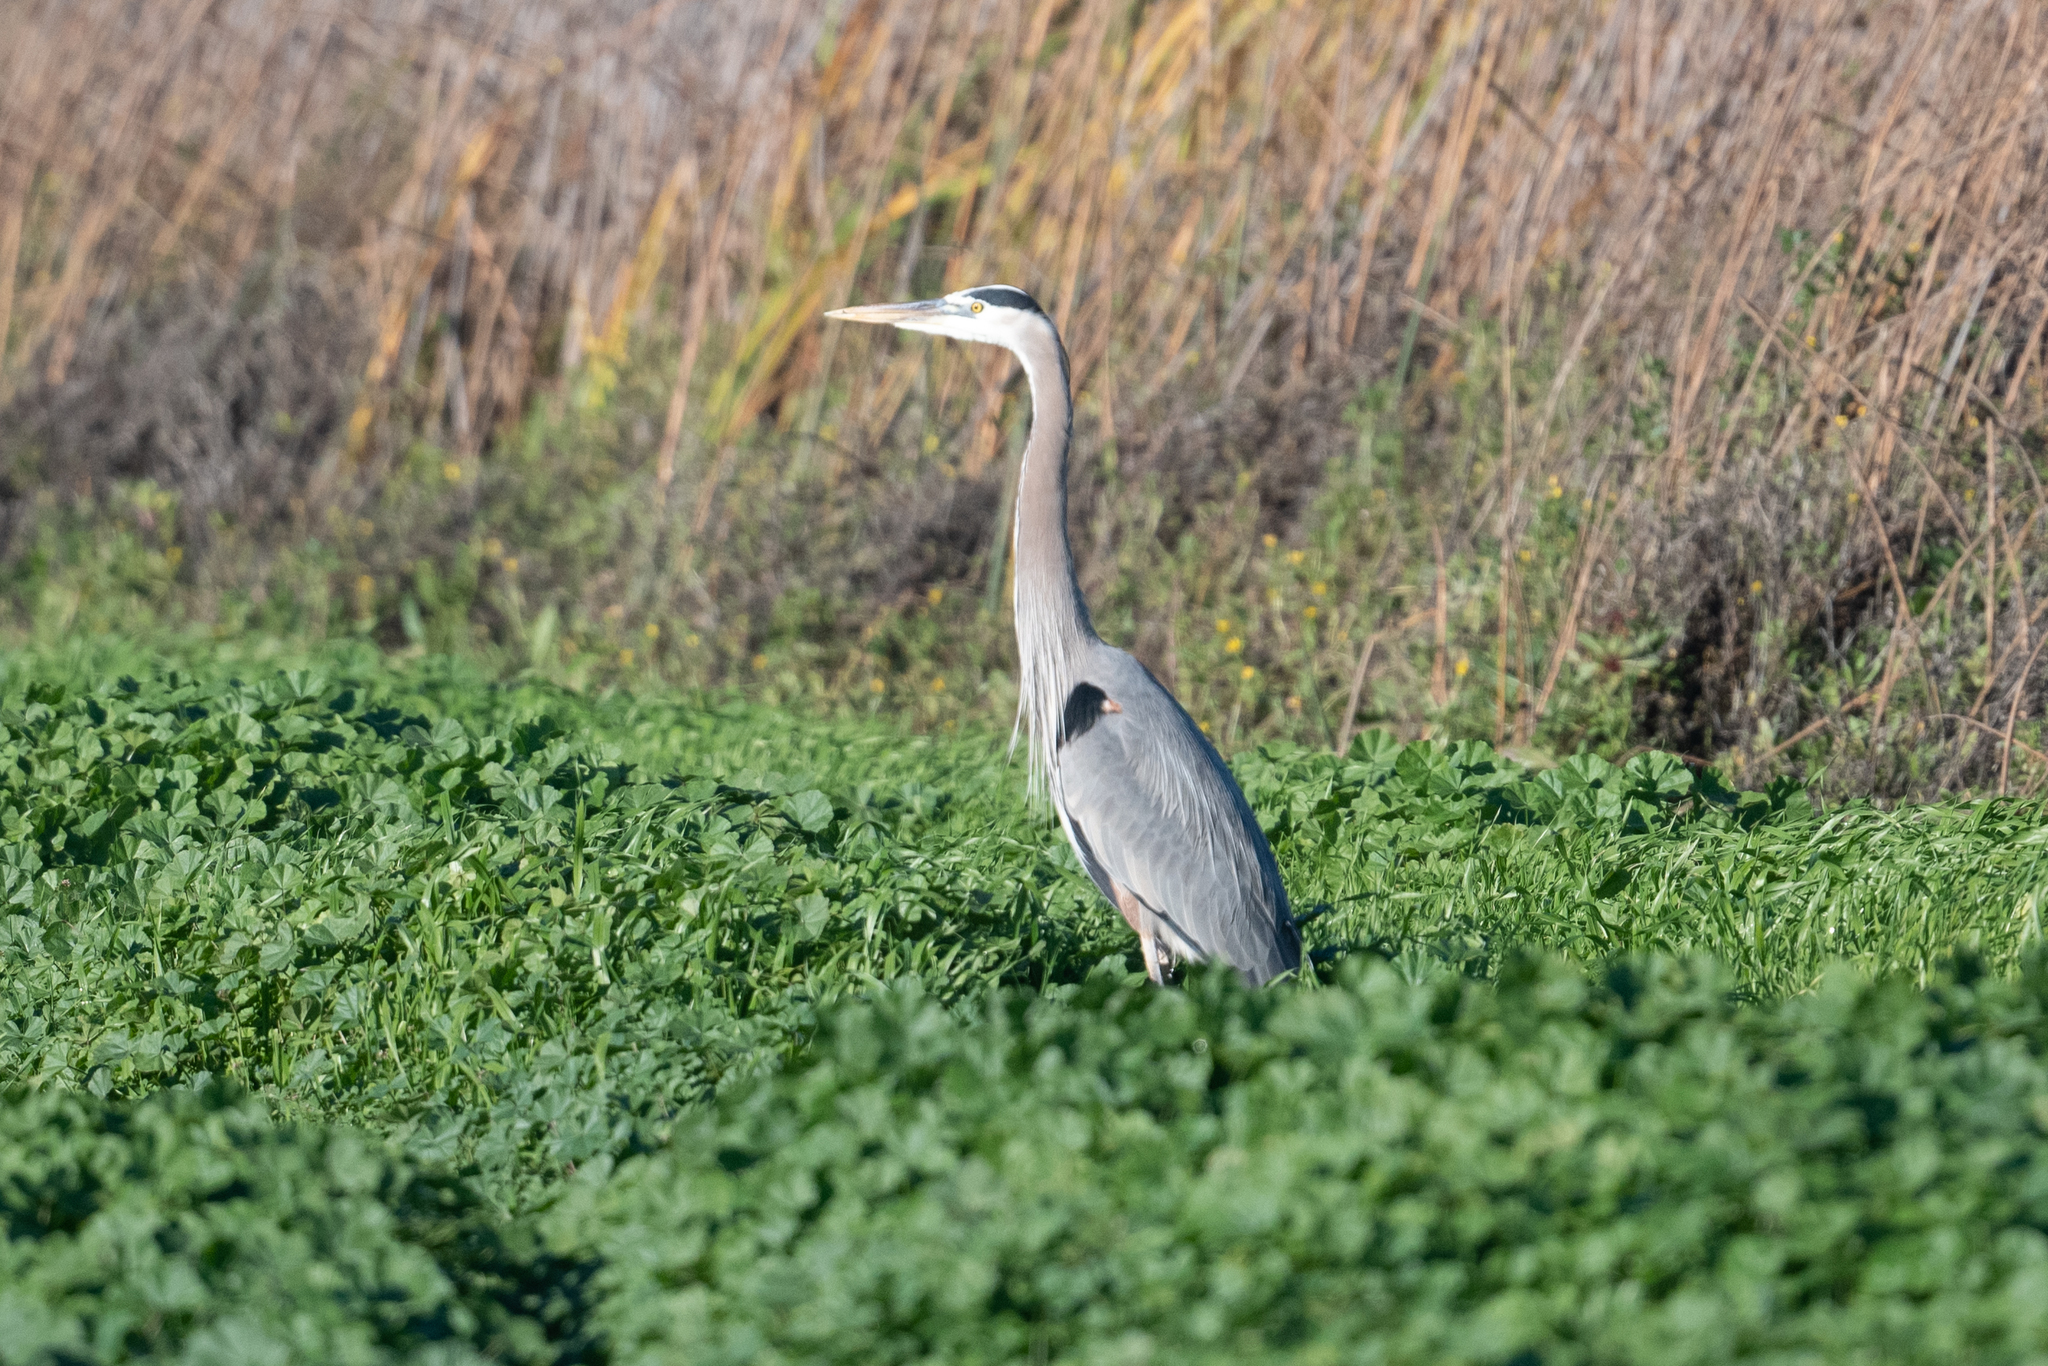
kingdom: Animalia
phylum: Chordata
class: Aves
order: Pelecaniformes
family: Ardeidae
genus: Ardea
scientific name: Ardea herodias
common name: Great blue heron
